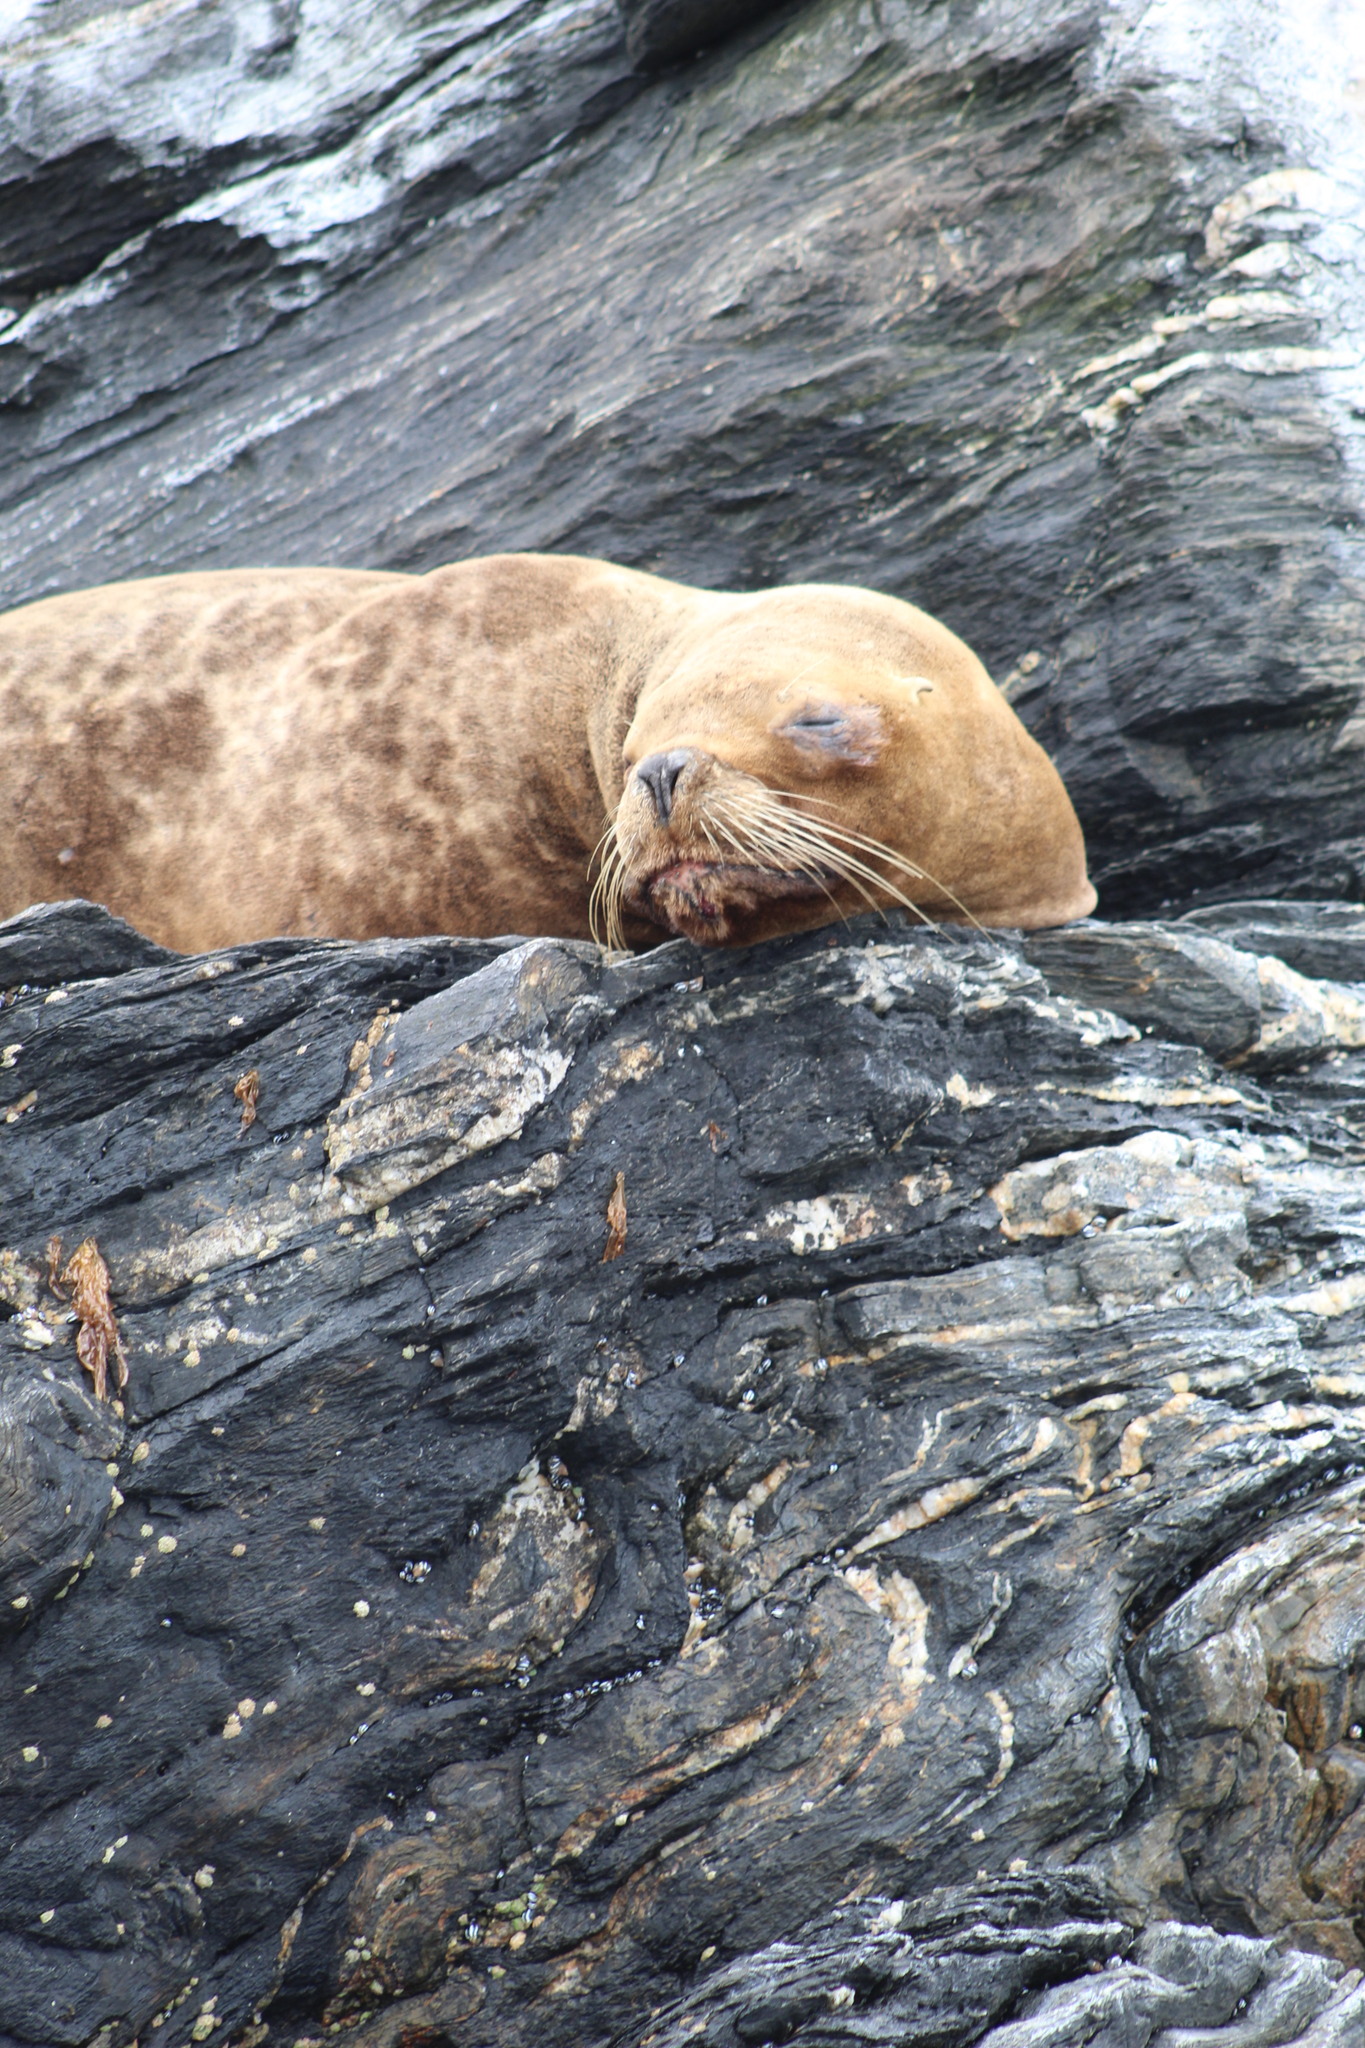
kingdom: Animalia
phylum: Chordata
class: Mammalia
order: Carnivora
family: Otariidae
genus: Otaria
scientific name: Otaria byronia
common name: South american sea lion
